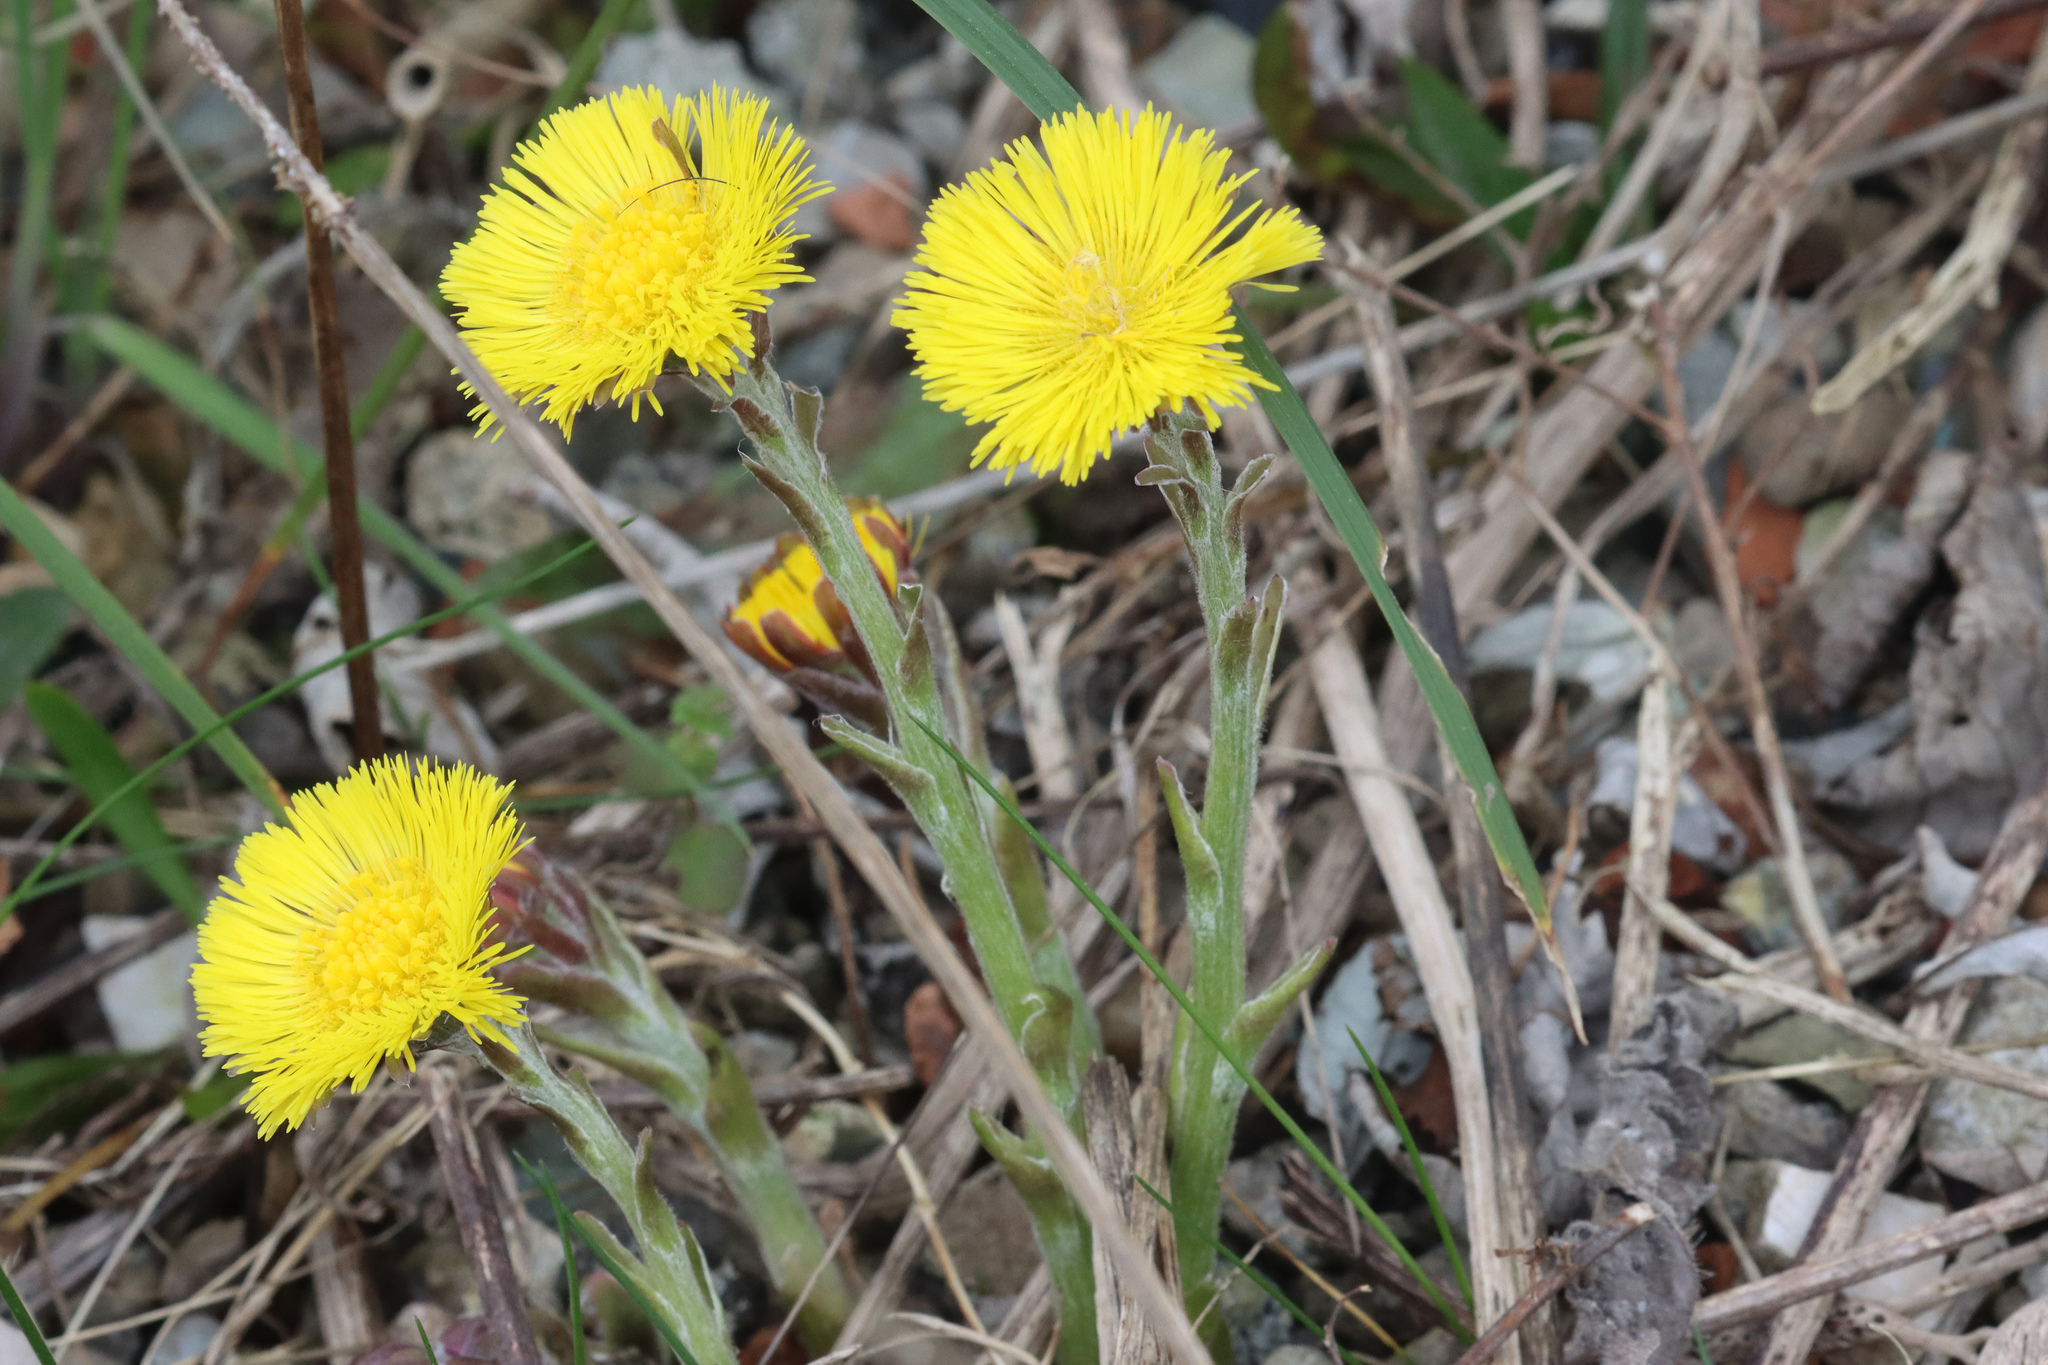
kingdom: Plantae
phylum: Tracheophyta
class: Magnoliopsida
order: Asterales
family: Asteraceae
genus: Tussilago
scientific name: Tussilago farfara
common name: Coltsfoot
